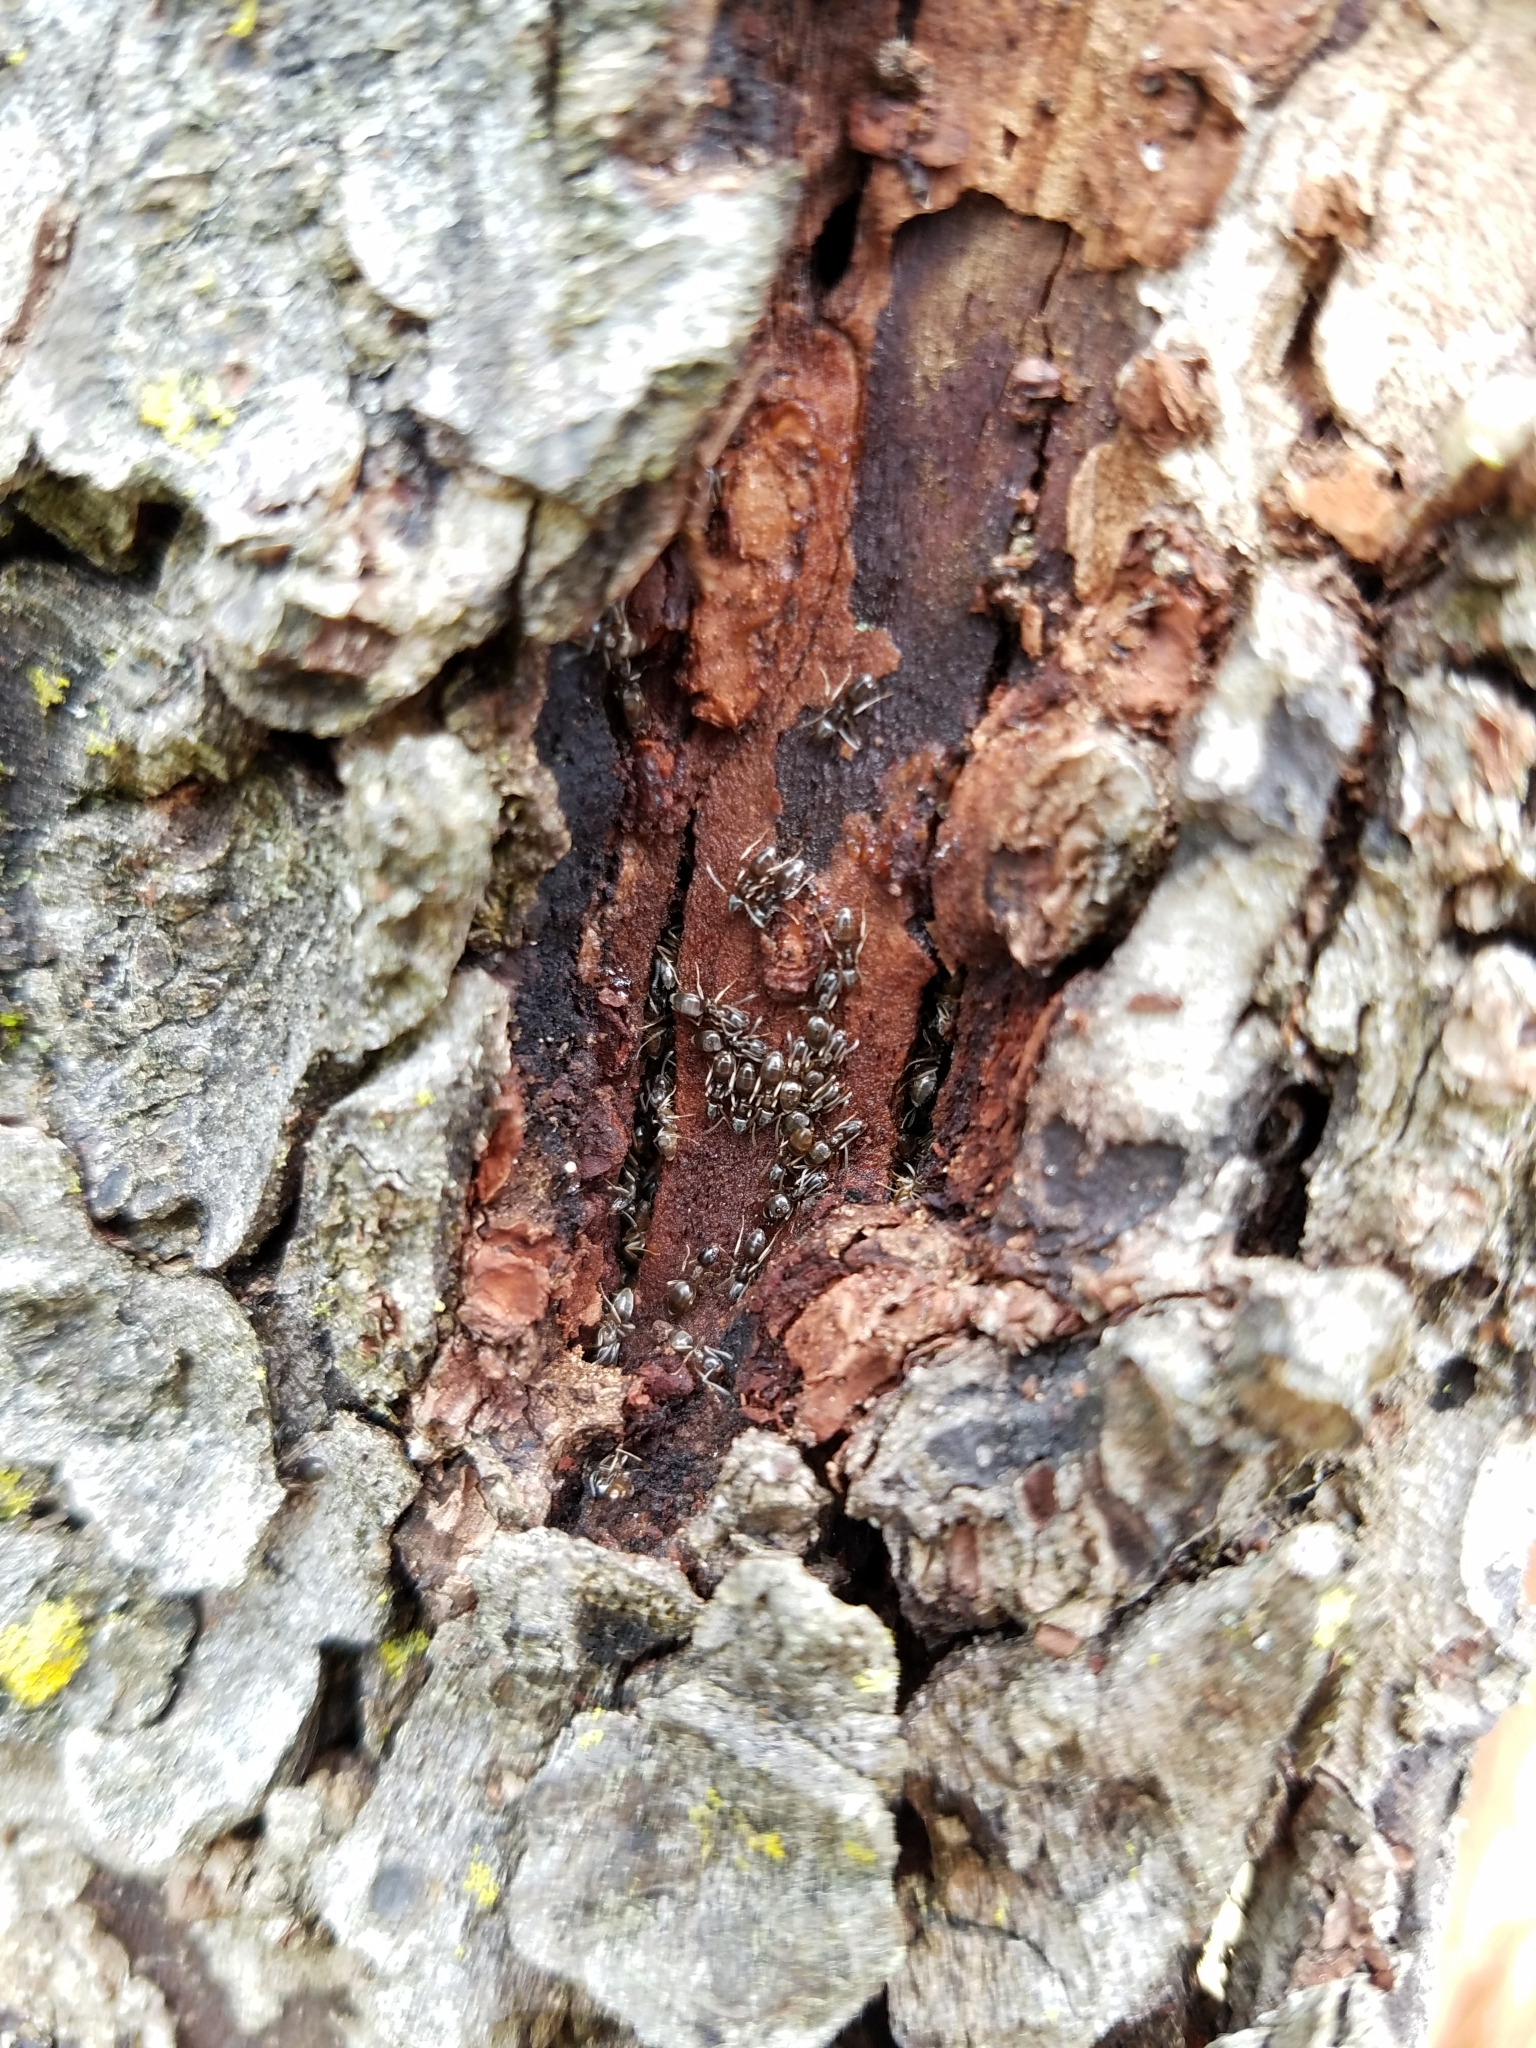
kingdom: Animalia
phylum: Arthropoda
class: Insecta
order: Hymenoptera
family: Formicidae
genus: Tapinoma
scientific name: Tapinoma sessile
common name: Odorous house ant
